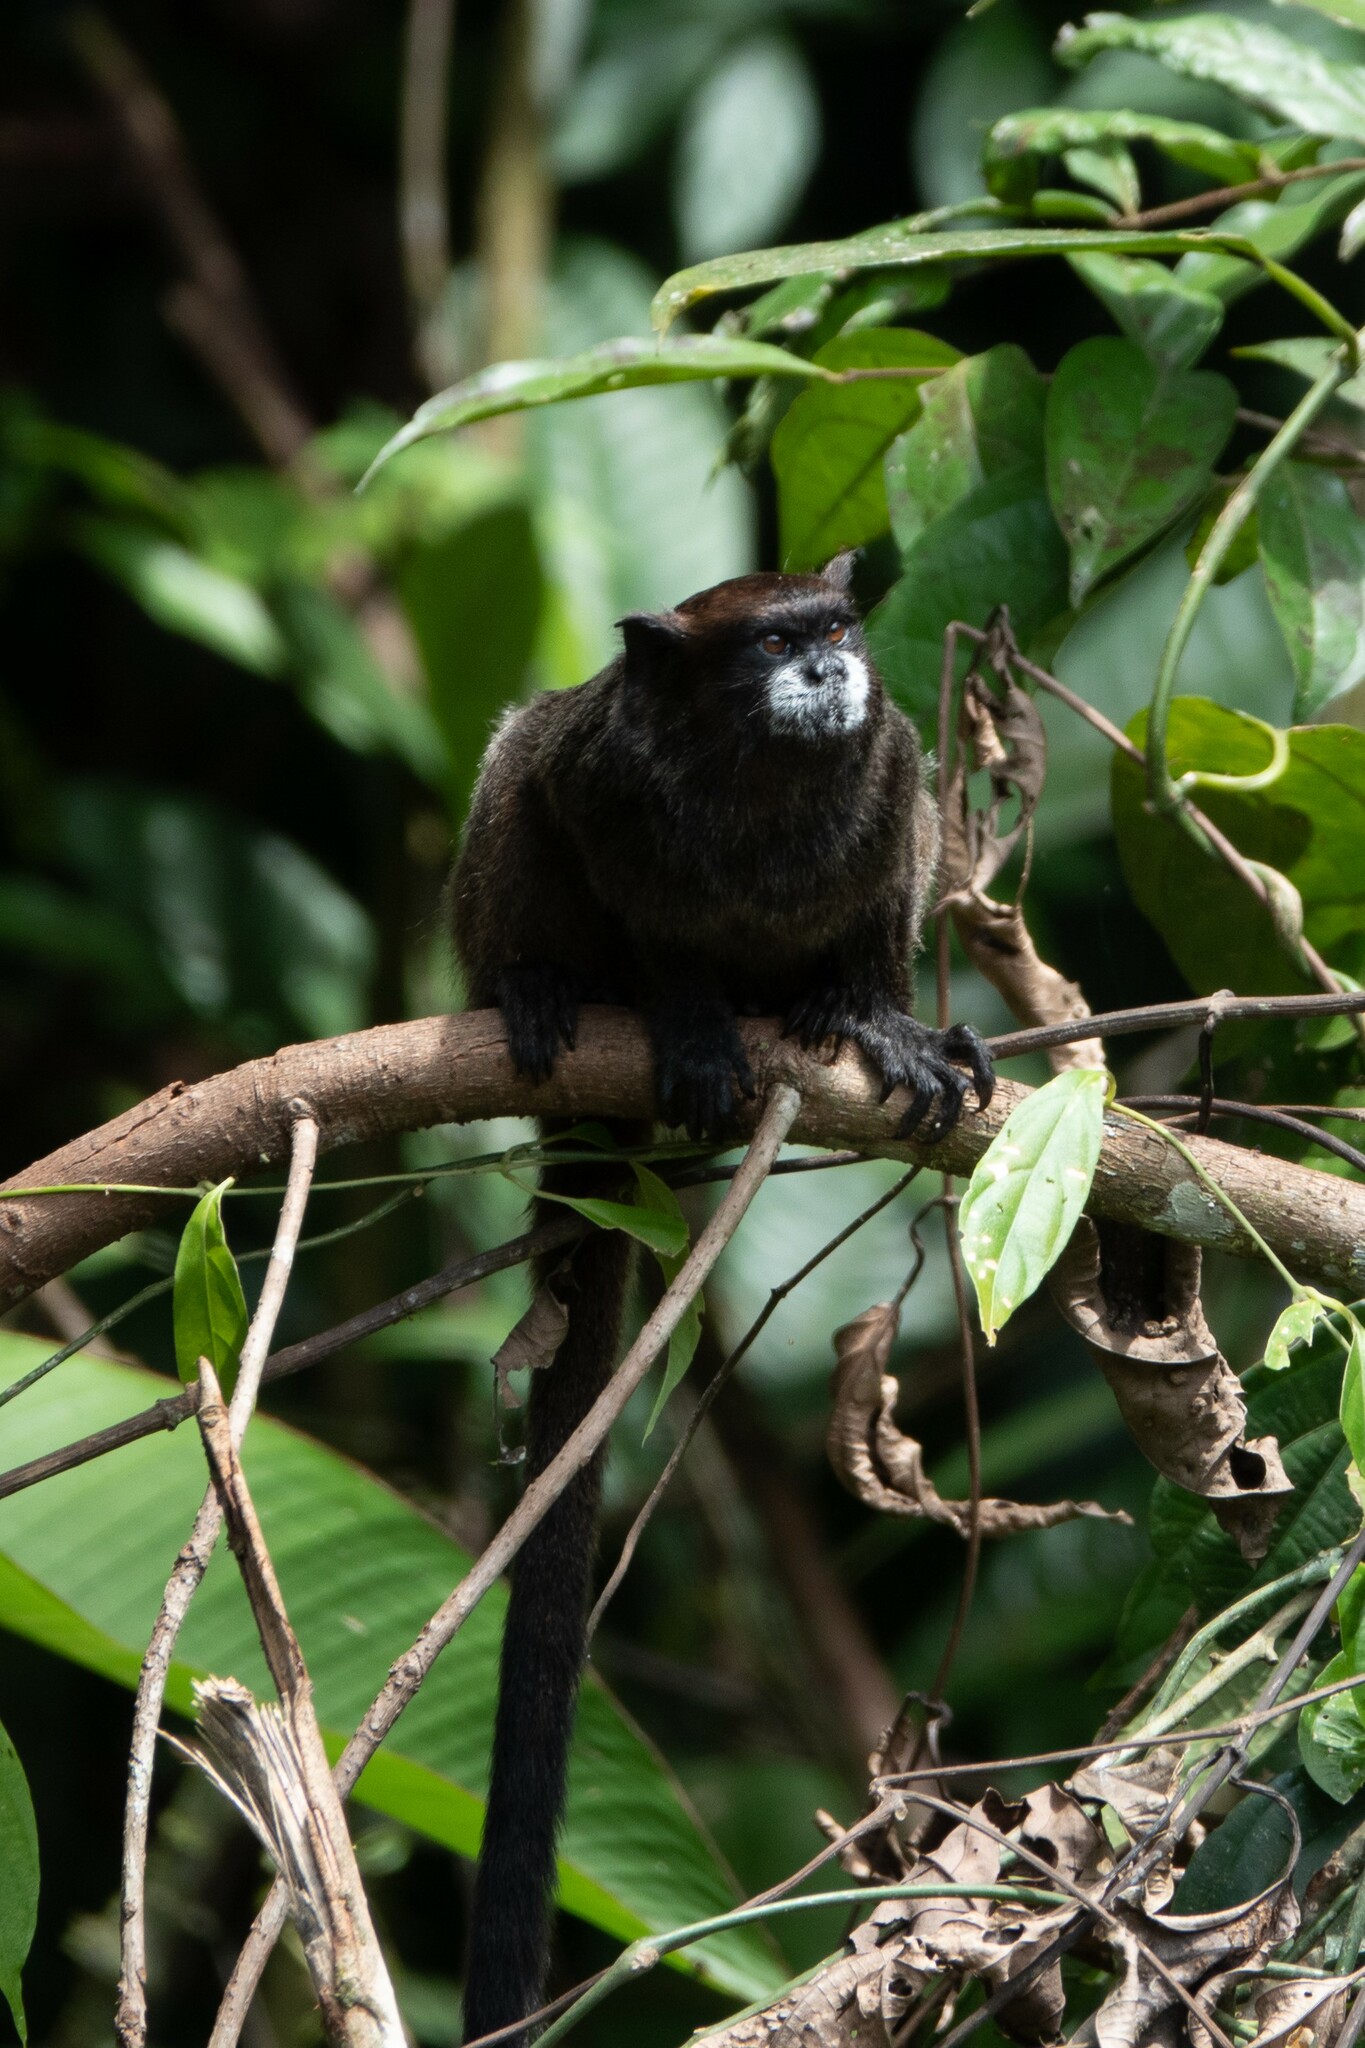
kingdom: Animalia
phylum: Chordata
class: Mammalia
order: Primates
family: Callitrichidae
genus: Leontocebus
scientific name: Leontocebus nigricollis
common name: Black-mantled tamarin
